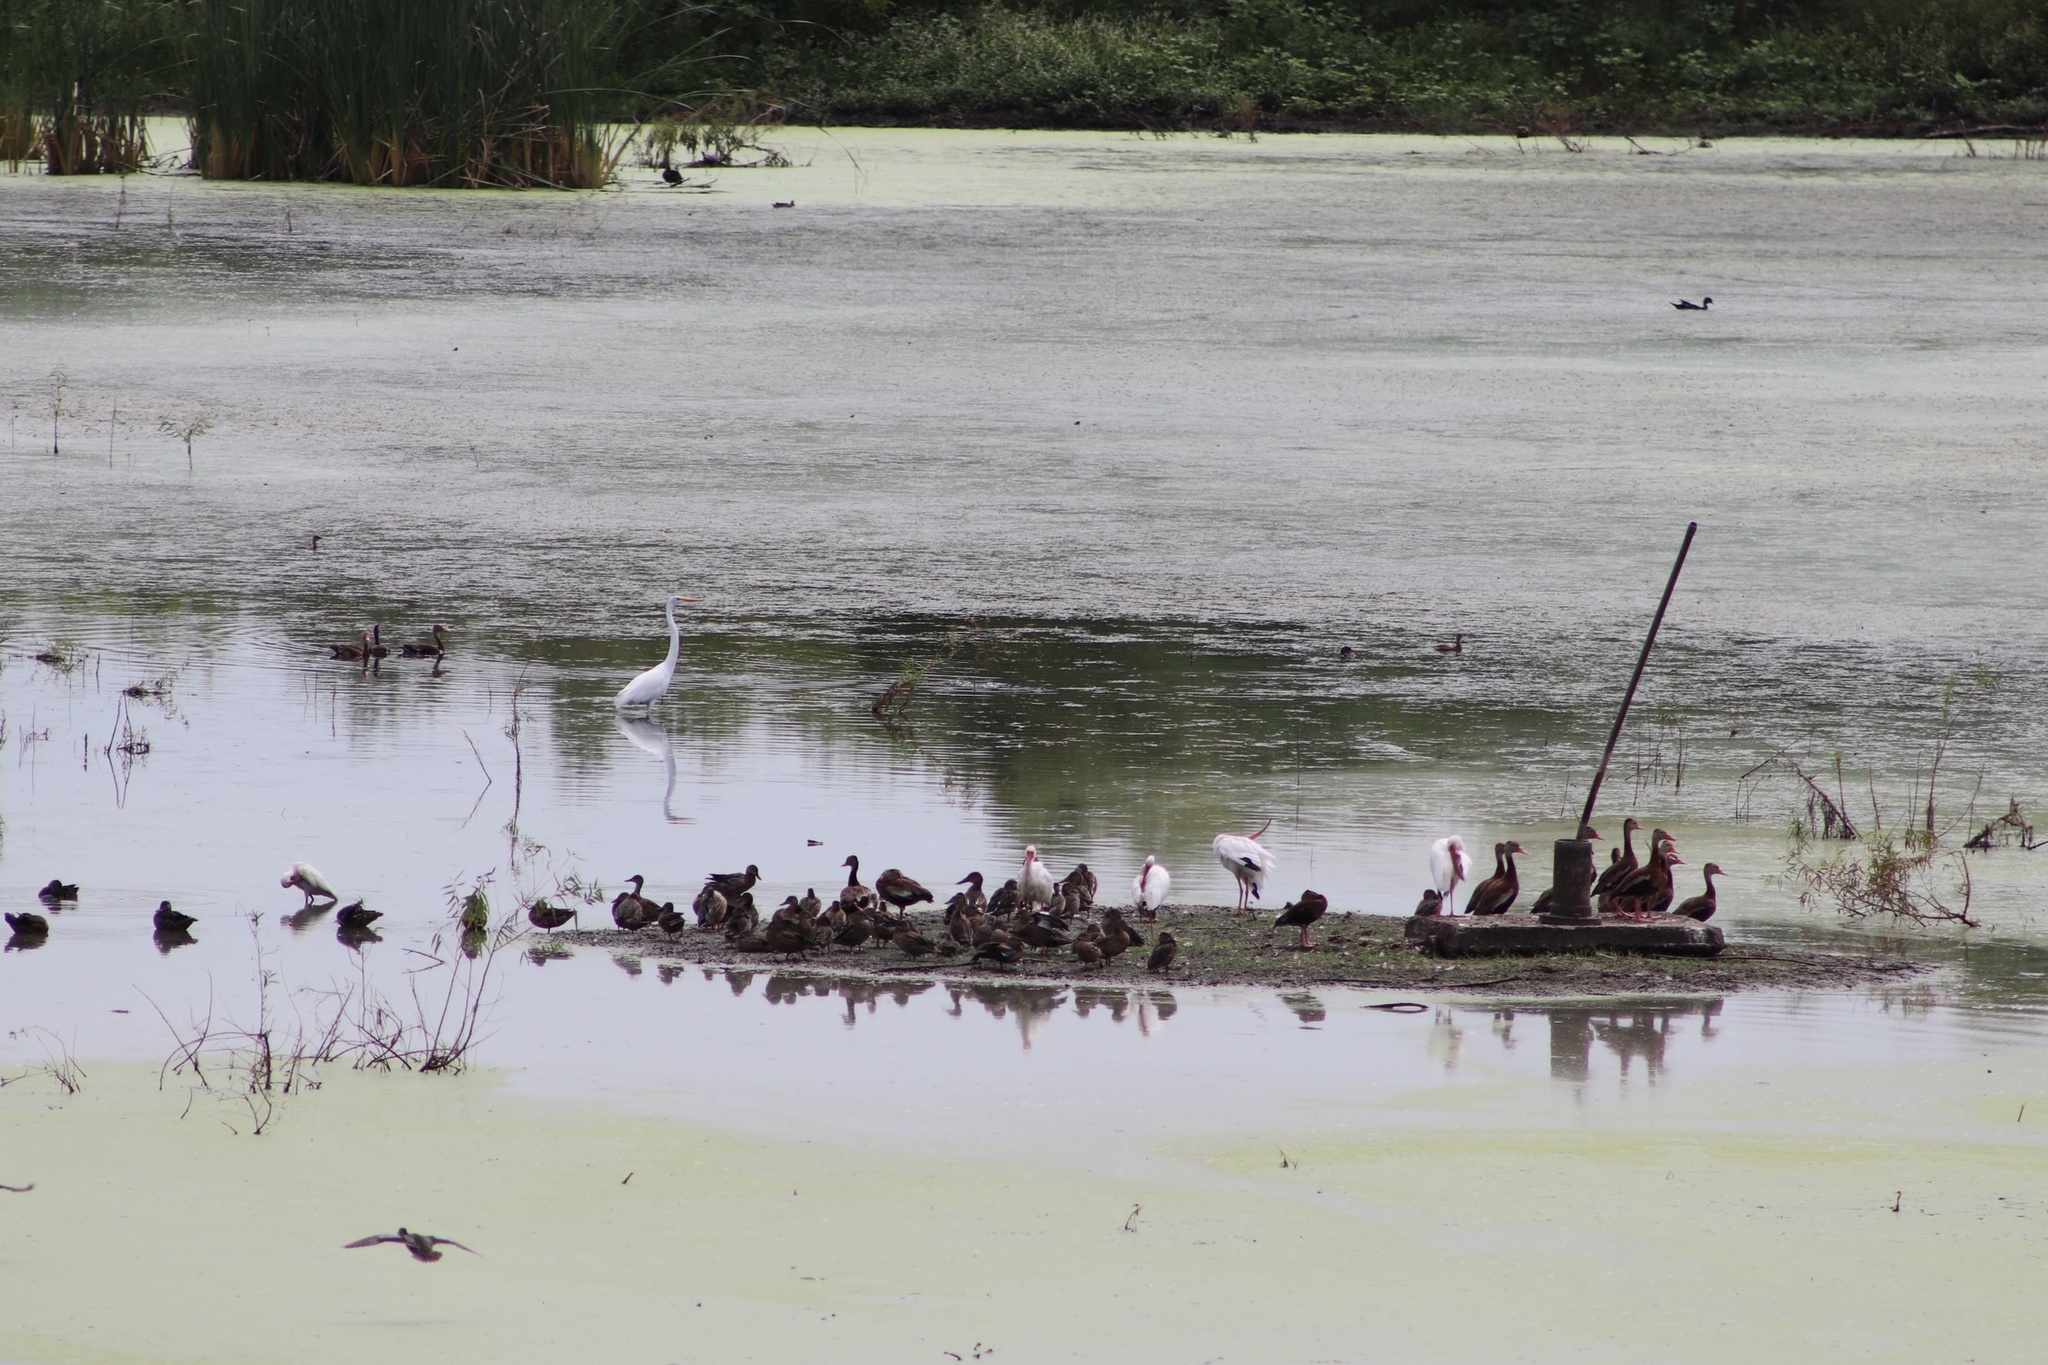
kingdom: Animalia
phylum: Chordata
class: Aves
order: Anseriformes
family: Anatidae
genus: Dendrocygna
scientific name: Dendrocygna autumnalis
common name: Black-bellied whistling duck
